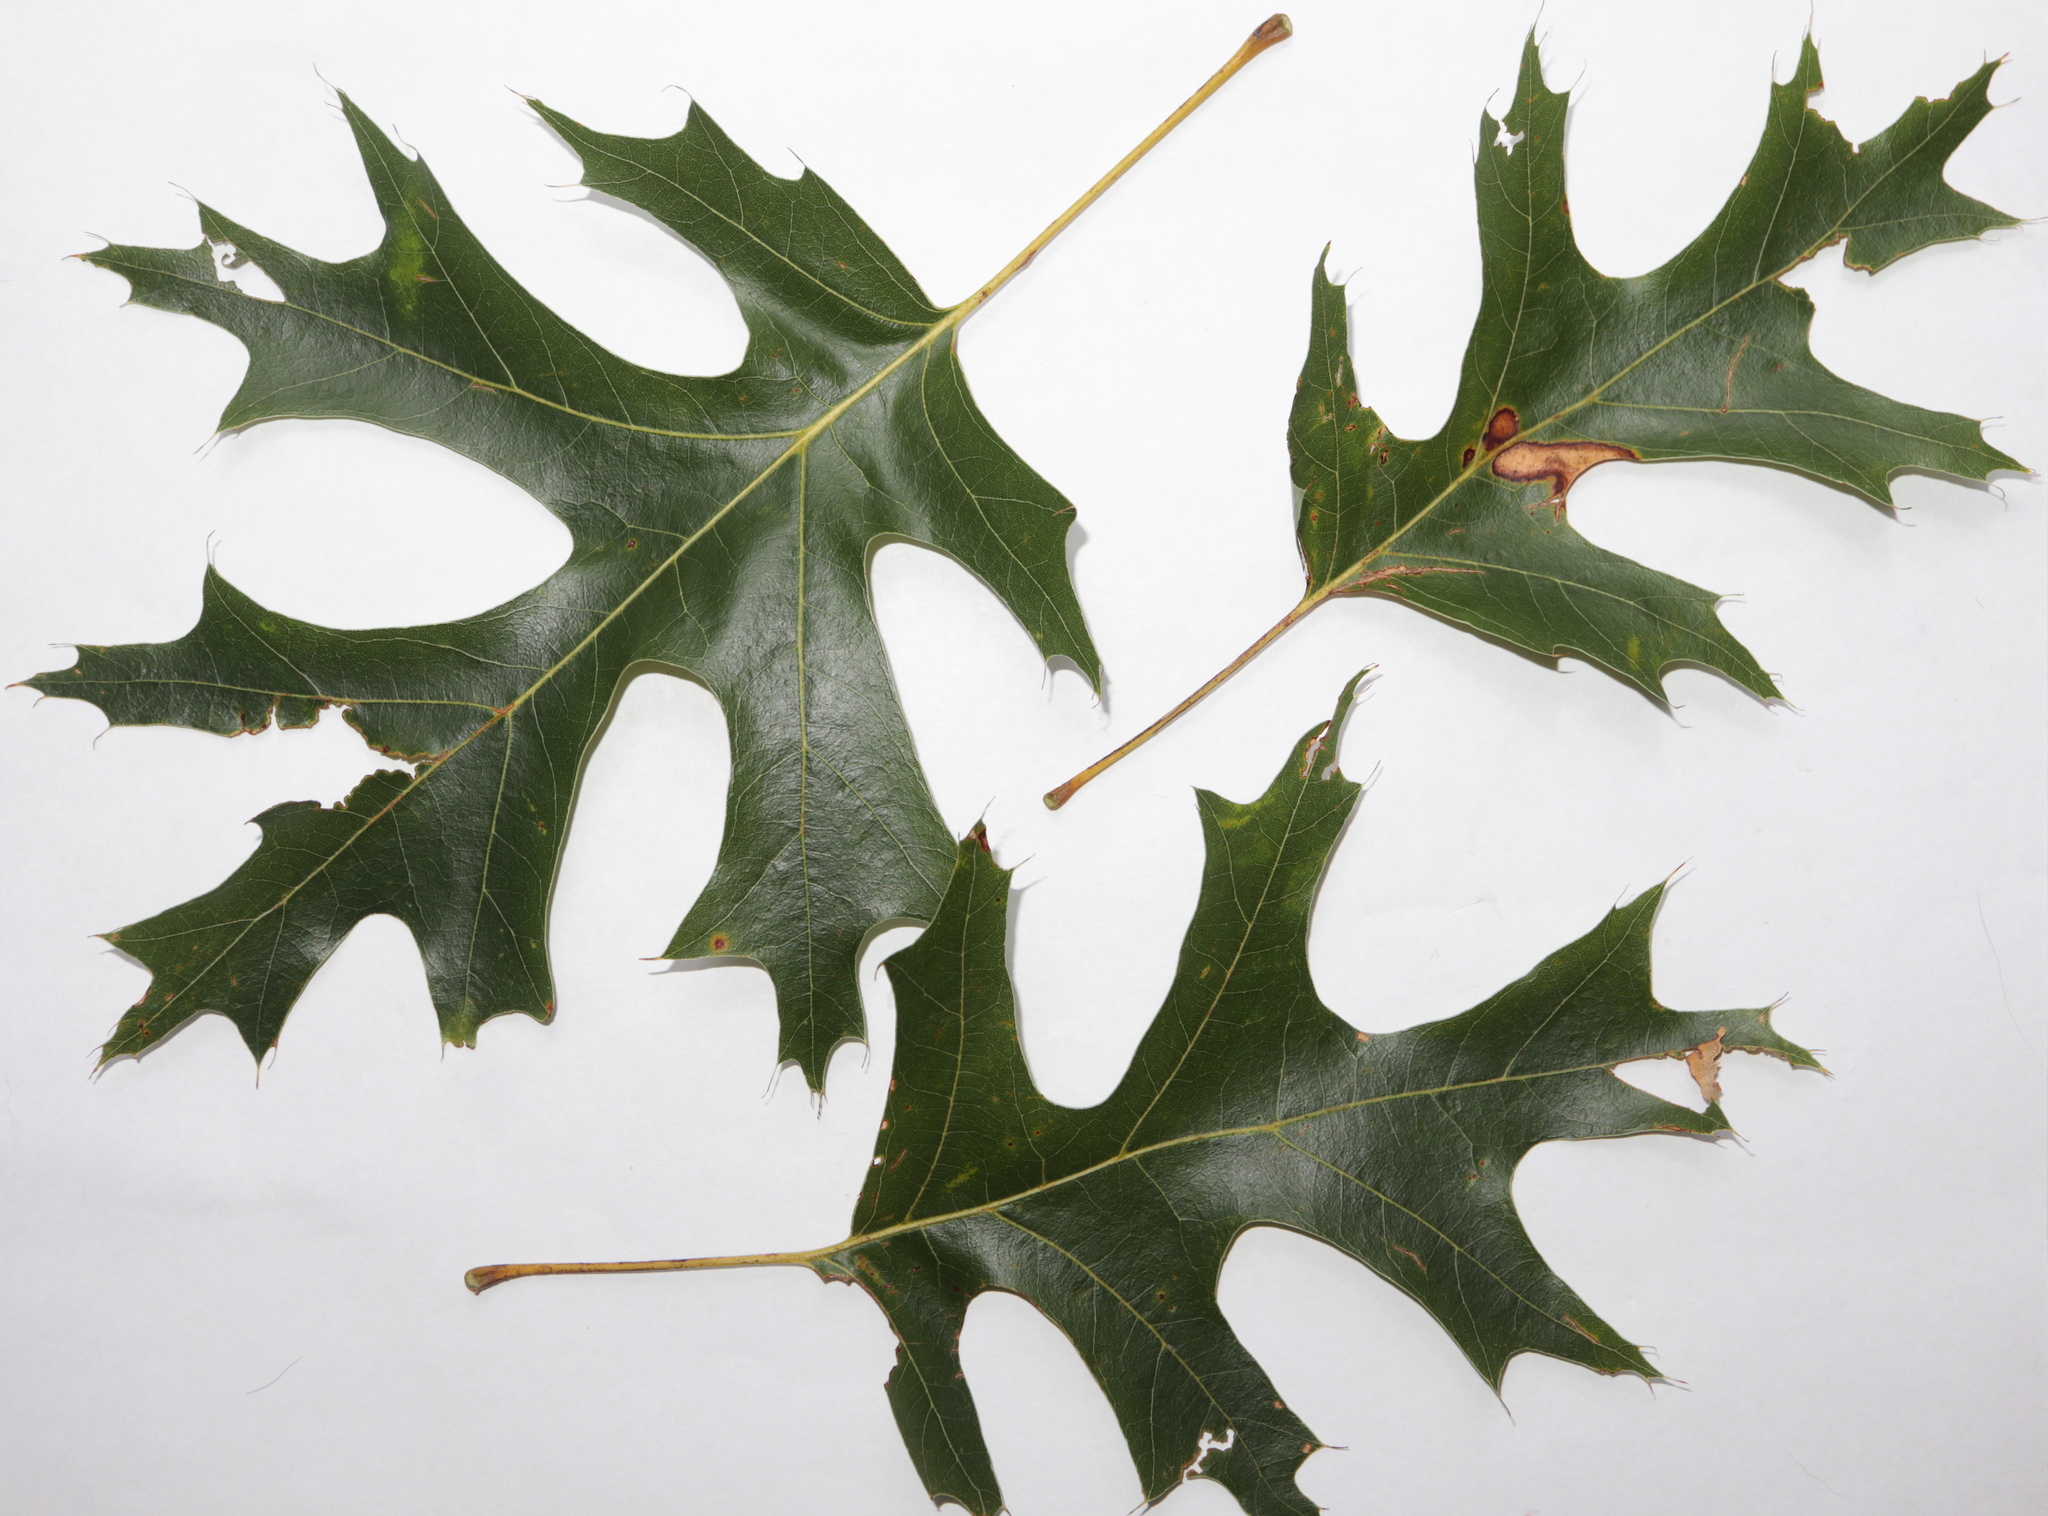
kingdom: Plantae
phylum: Tracheophyta
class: Magnoliopsida
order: Fagales
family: Fagaceae
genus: Quercus
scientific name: Quercus coccinea
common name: Scarlet oak
